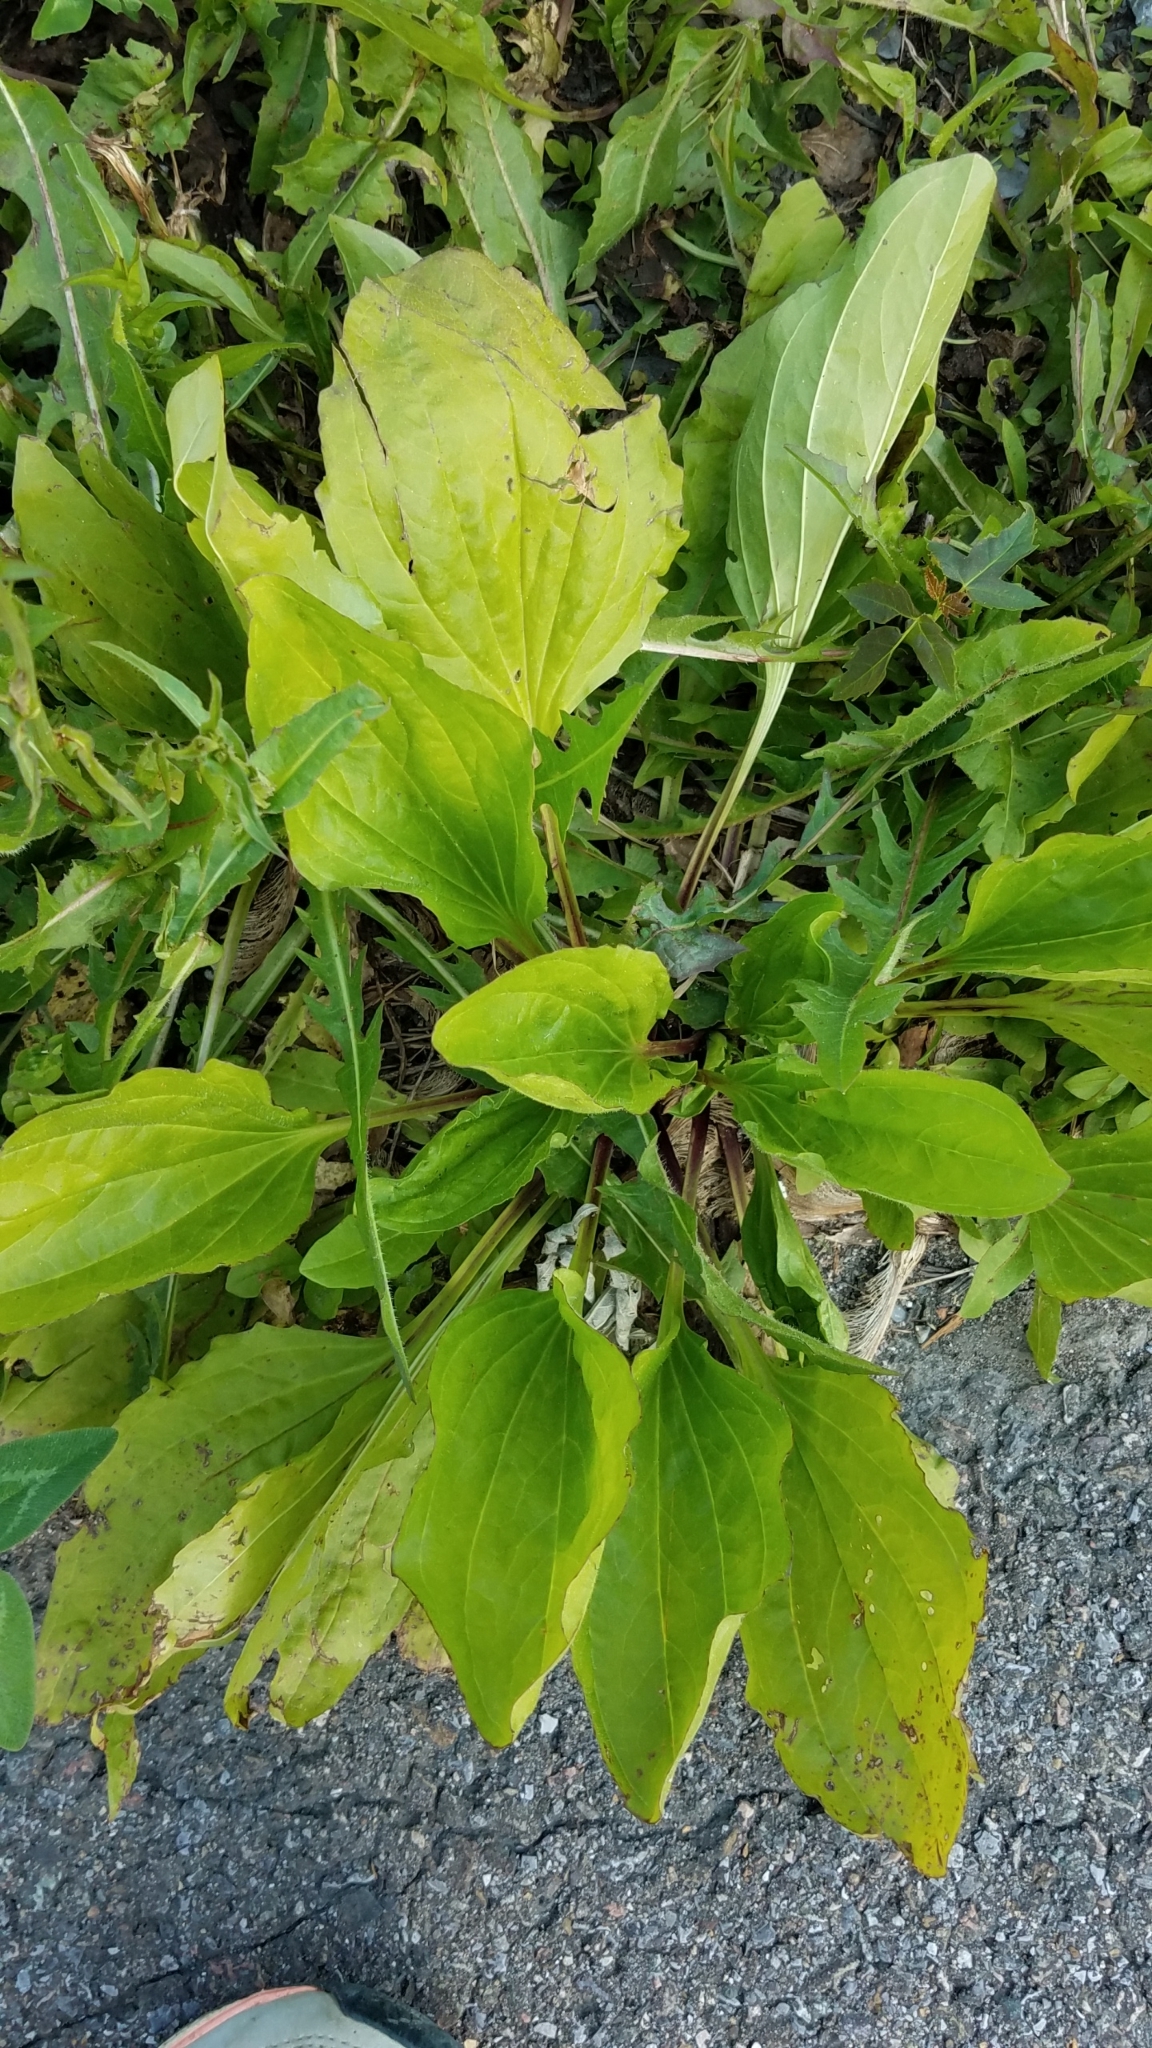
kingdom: Plantae
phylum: Tracheophyta
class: Magnoliopsida
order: Lamiales
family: Plantaginaceae
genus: Plantago
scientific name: Plantago rugelii
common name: American plantain
